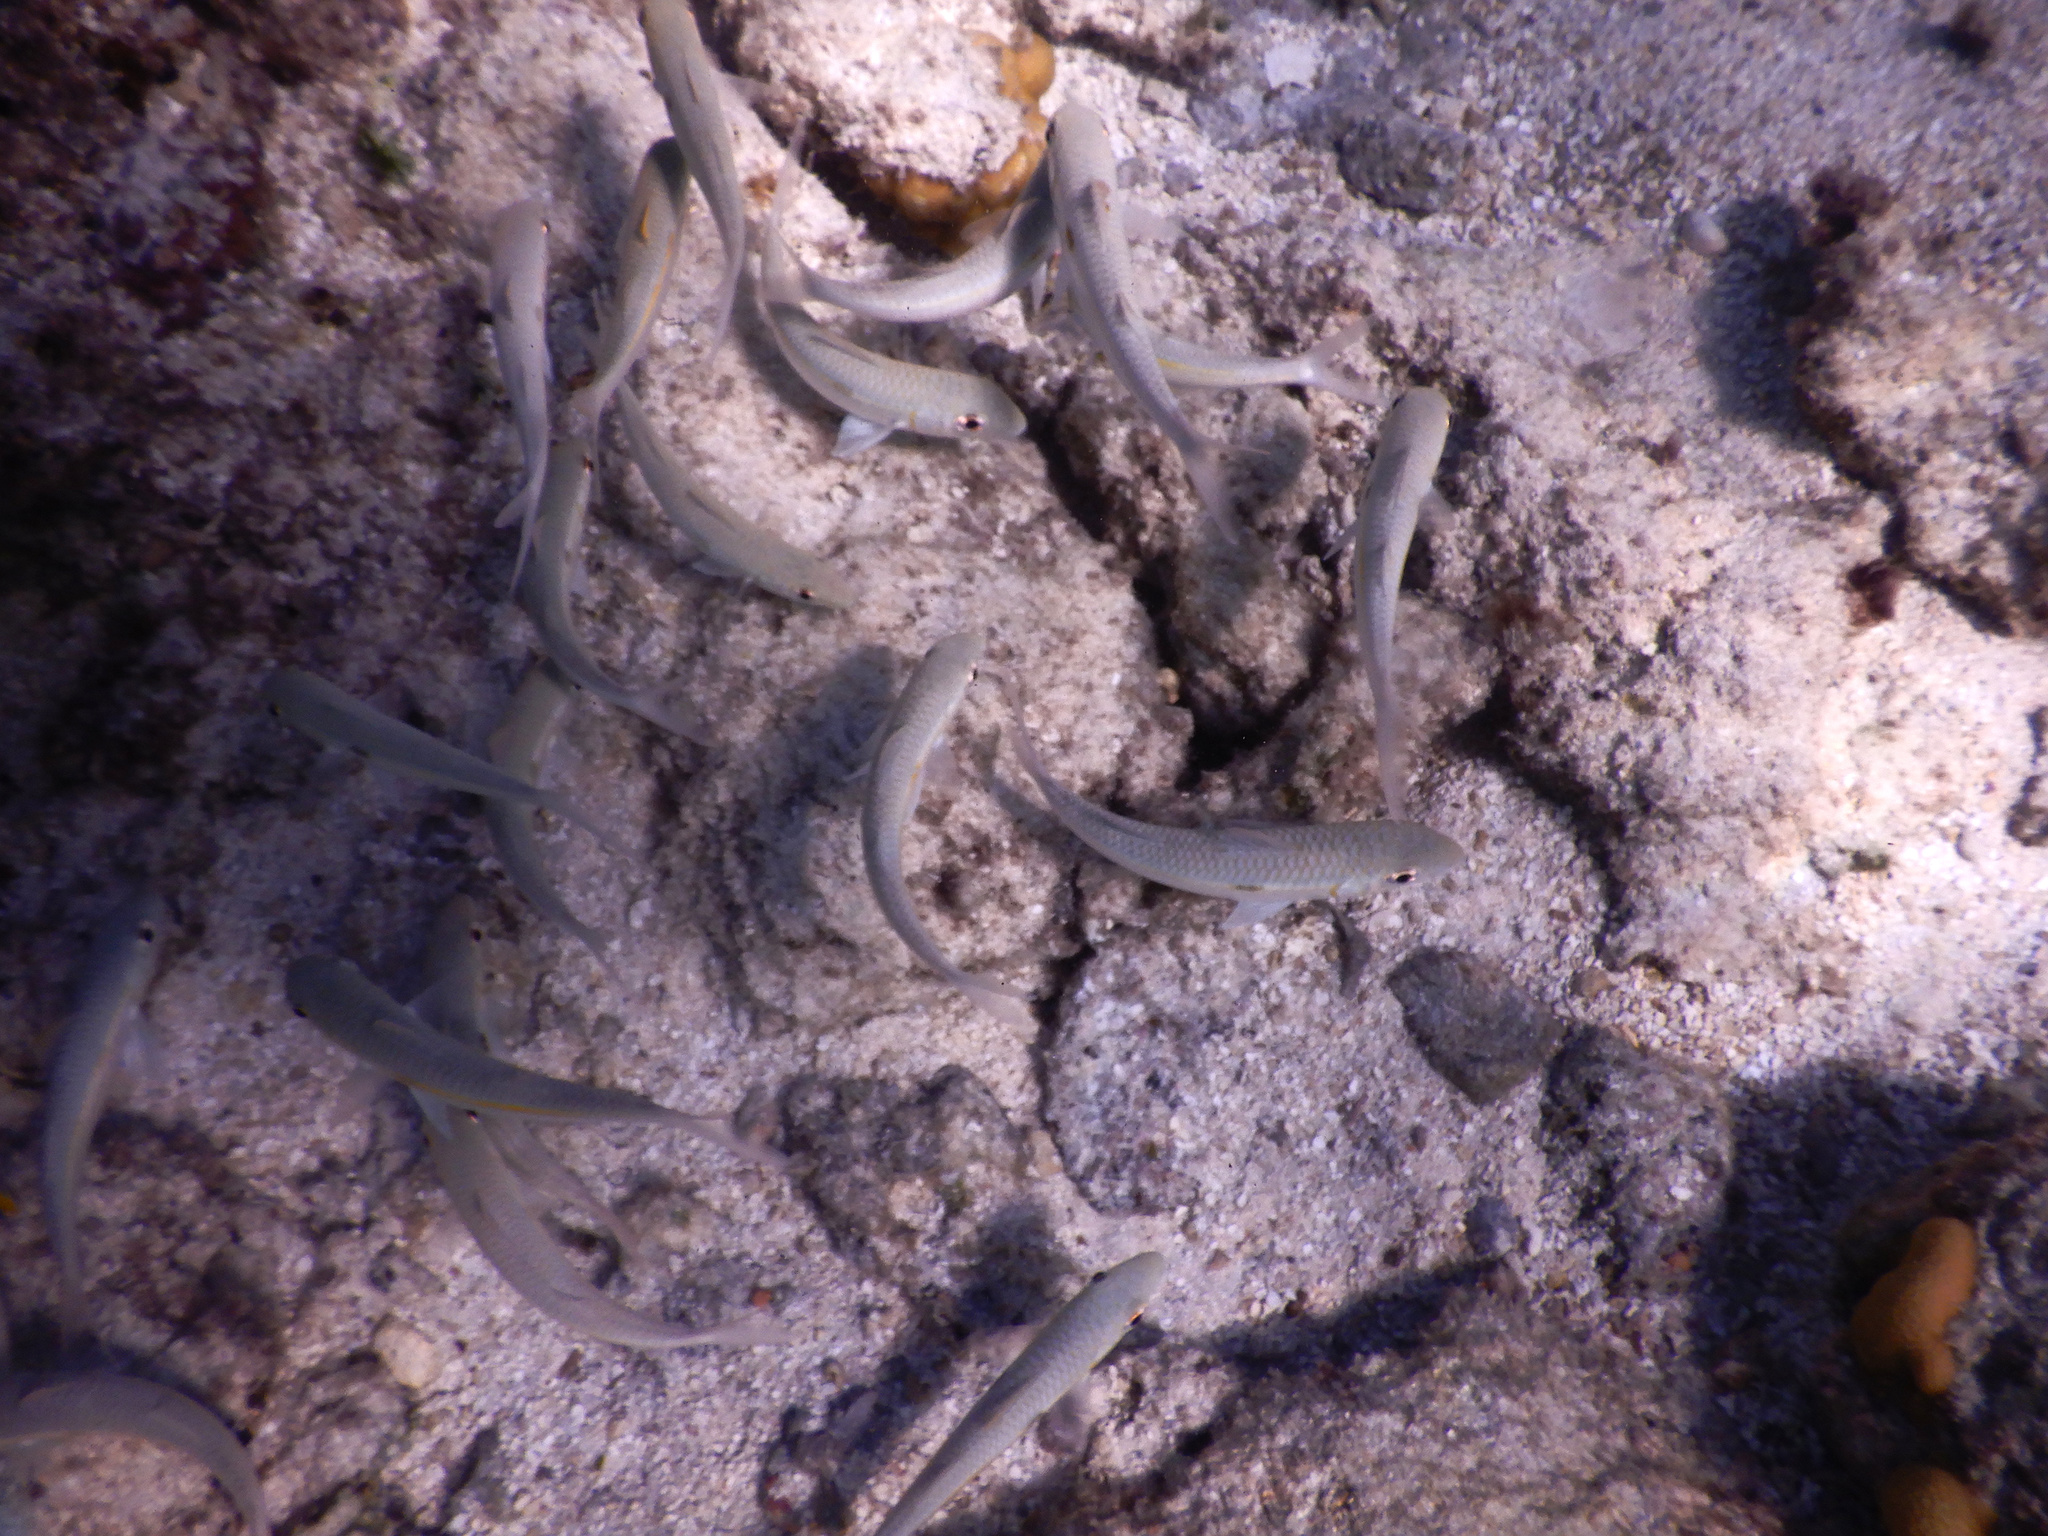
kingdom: Animalia
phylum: Chordata
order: Perciformes
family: Mullidae
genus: Mulloidichthys
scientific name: Mulloidichthys flavolineatus
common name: Yellowstripe goatfish
